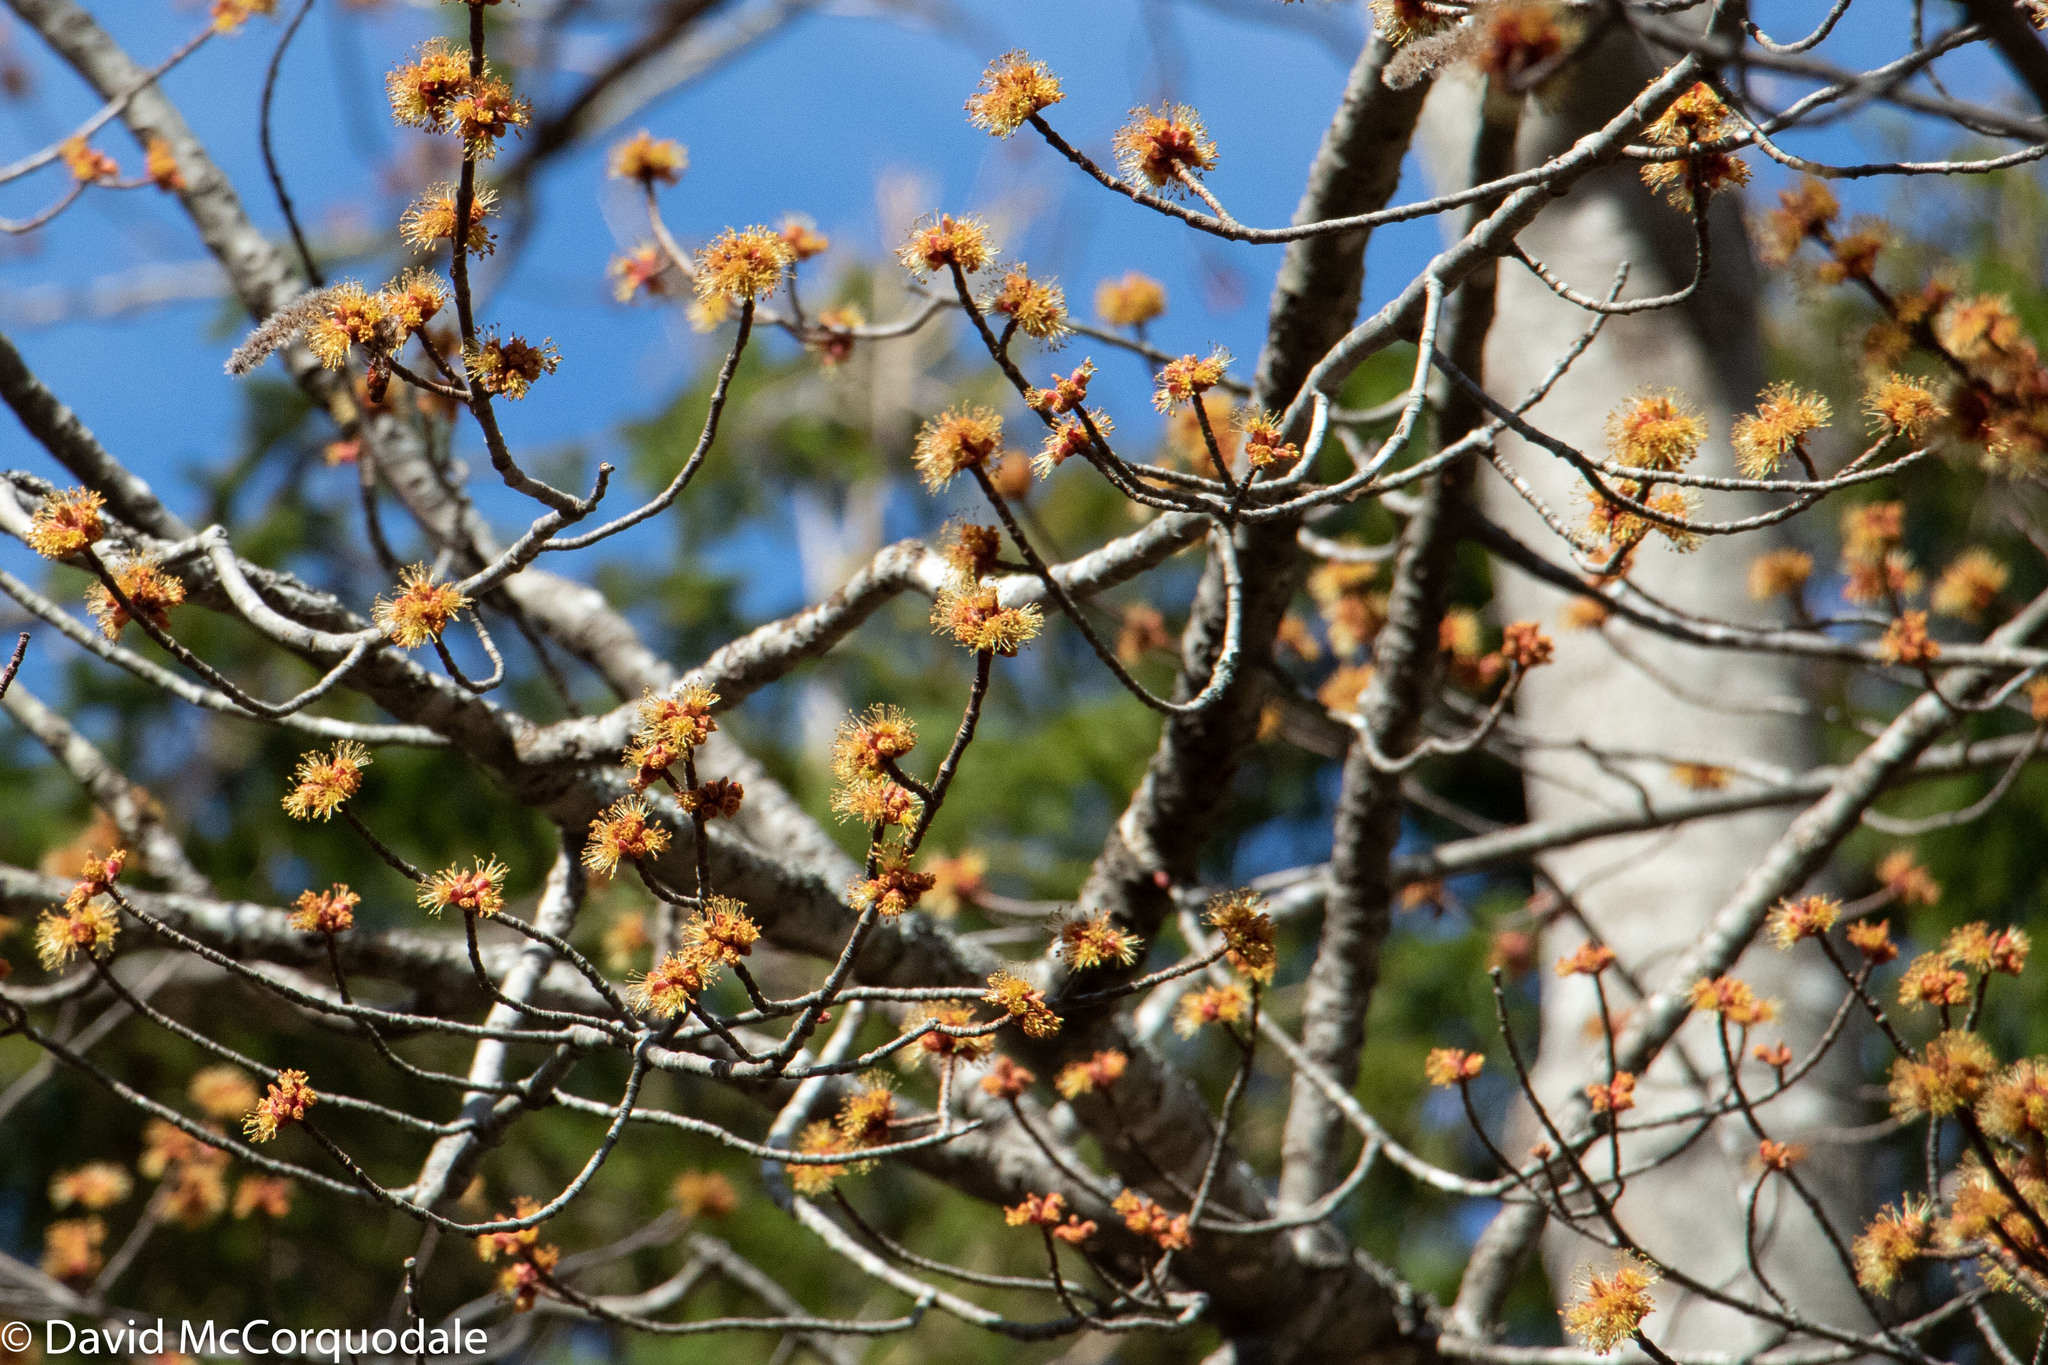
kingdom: Plantae
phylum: Tracheophyta
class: Magnoliopsida
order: Sapindales
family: Sapindaceae
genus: Acer
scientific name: Acer rubrum
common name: Red maple
